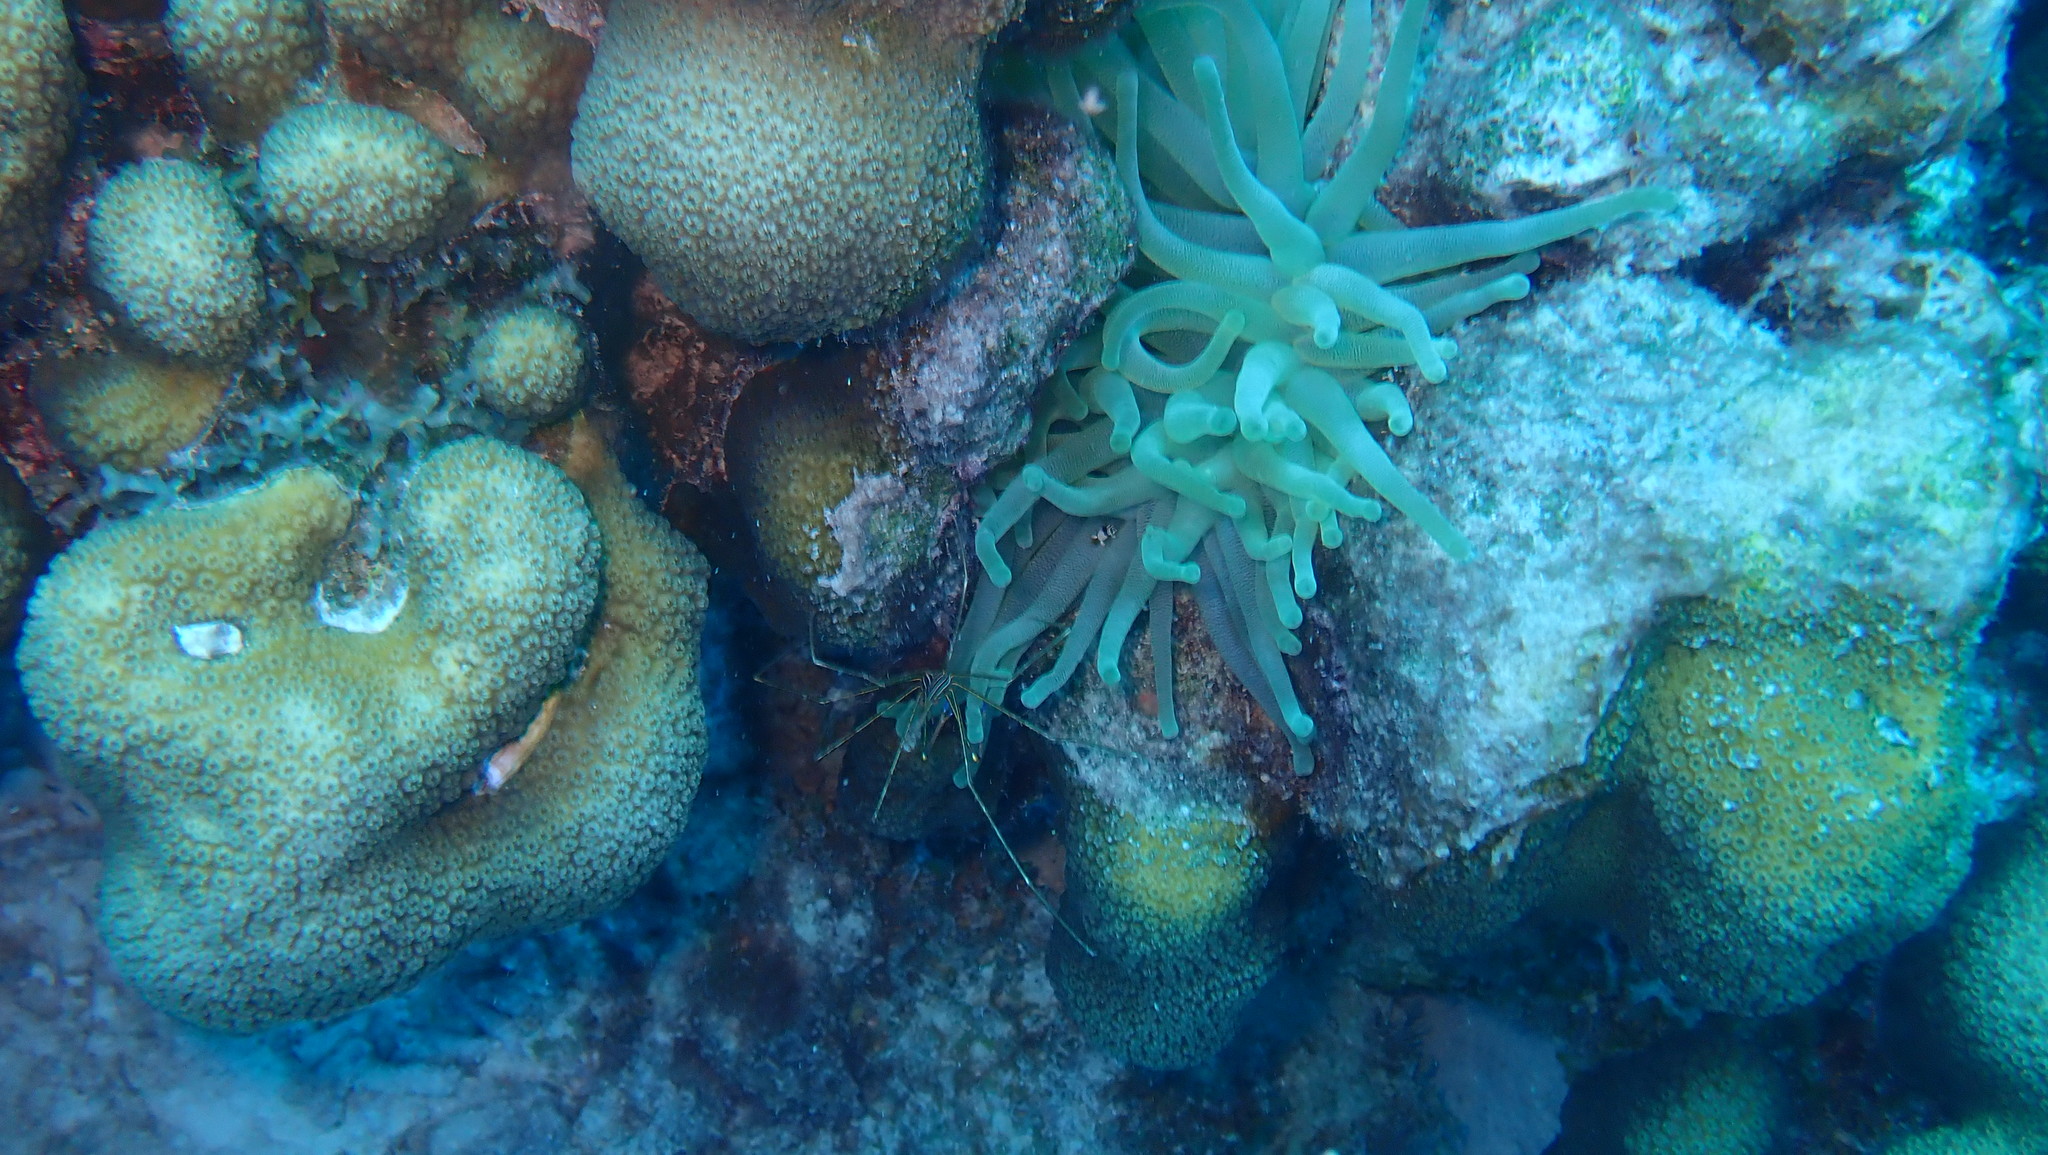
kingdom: Animalia
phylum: Cnidaria
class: Anthozoa
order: Actiniaria
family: Actiniidae
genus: Condylactis
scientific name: Condylactis gigantea
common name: Giant caribbean anemone
